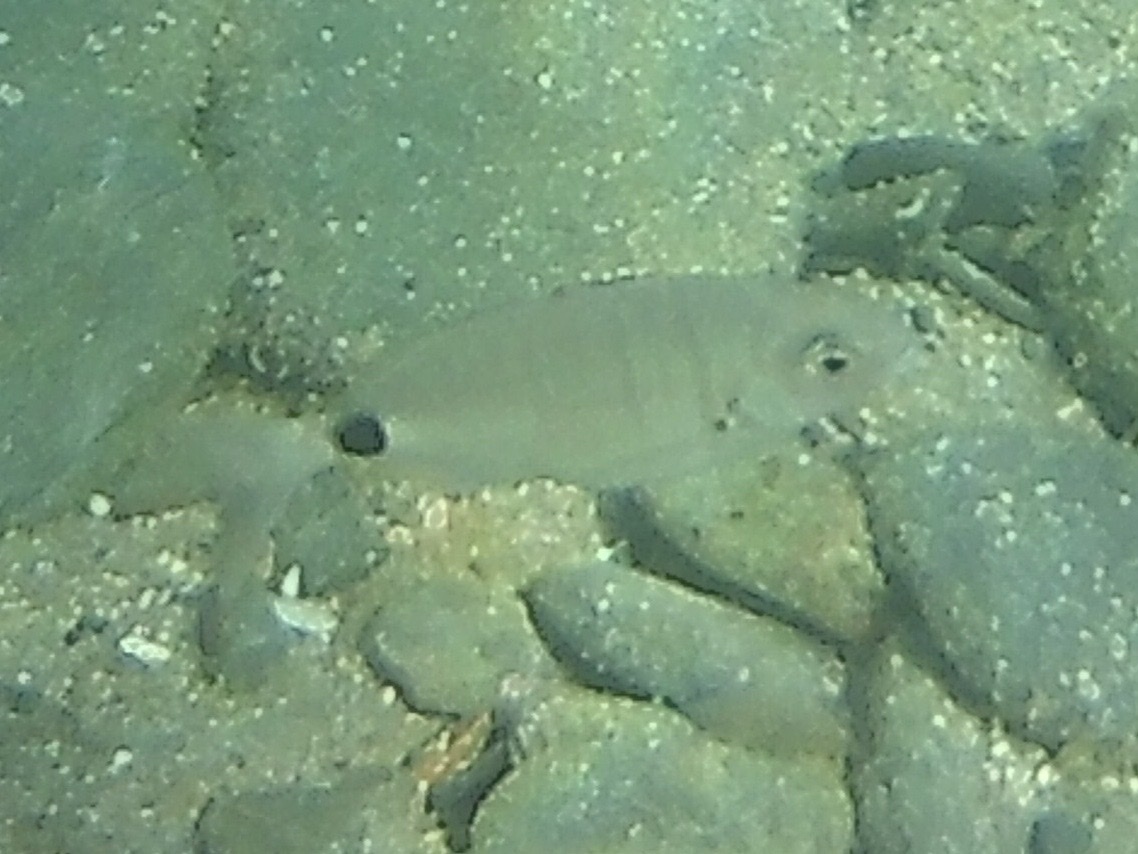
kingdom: Animalia
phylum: Chordata
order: Perciformes
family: Sparidae
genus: Diplodus
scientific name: Diplodus sargus
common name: White seabream
